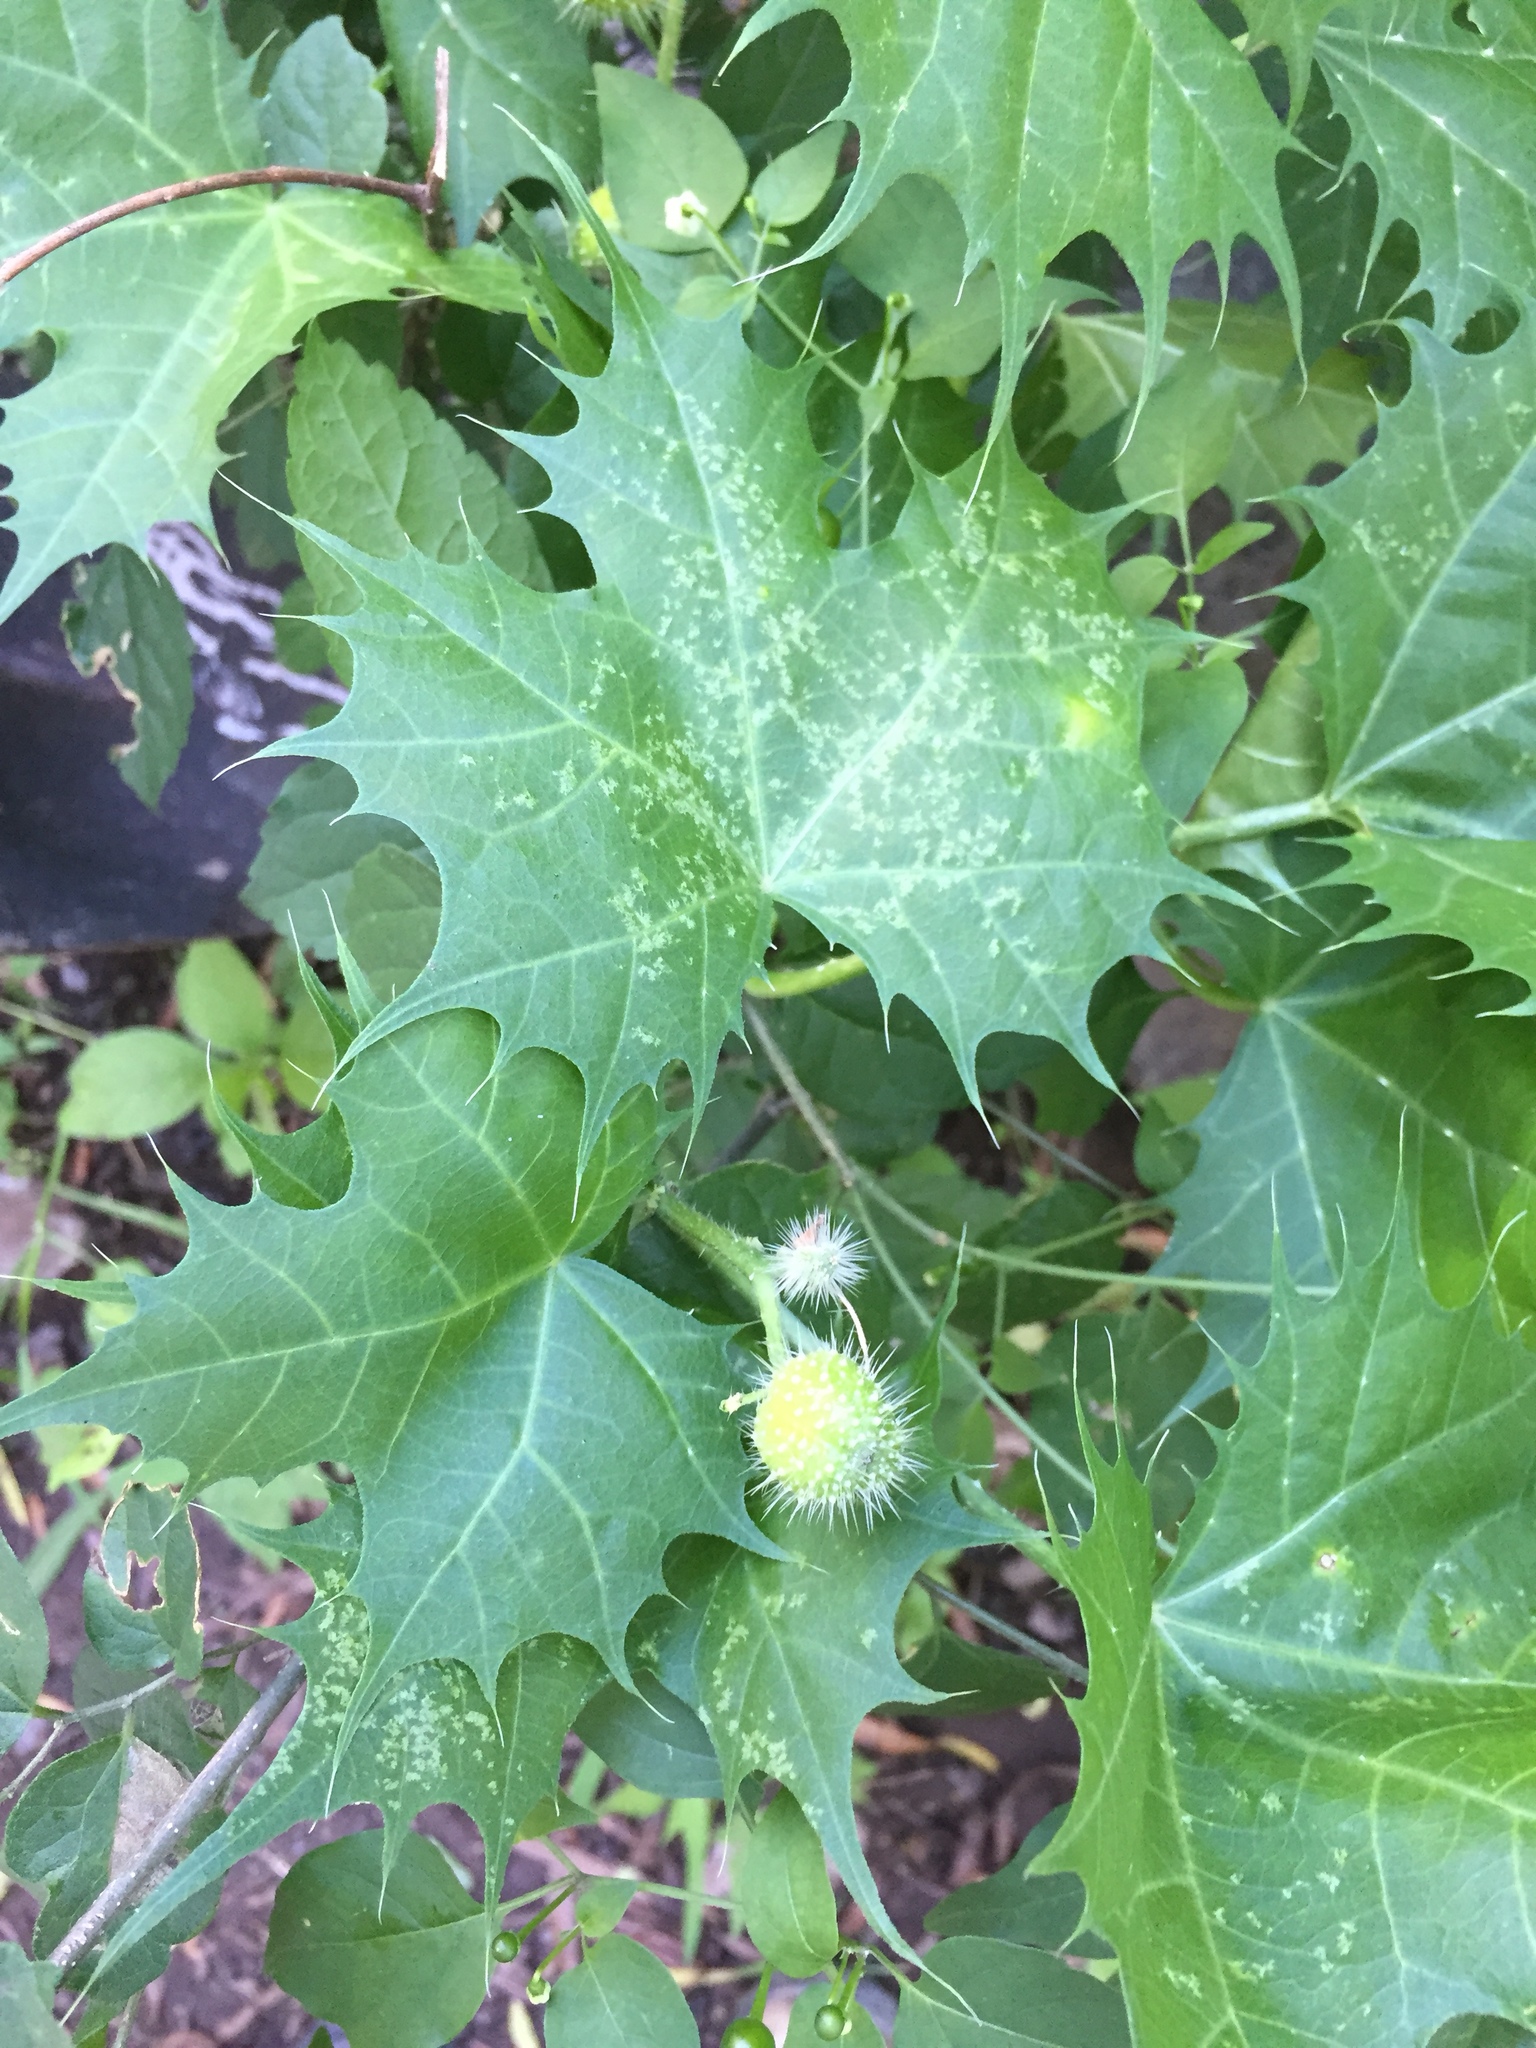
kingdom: Plantae
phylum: Tracheophyta
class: Magnoliopsida
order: Malpighiales
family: Euphorbiaceae
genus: Cnidoscolus
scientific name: Cnidoscolus angustidens
